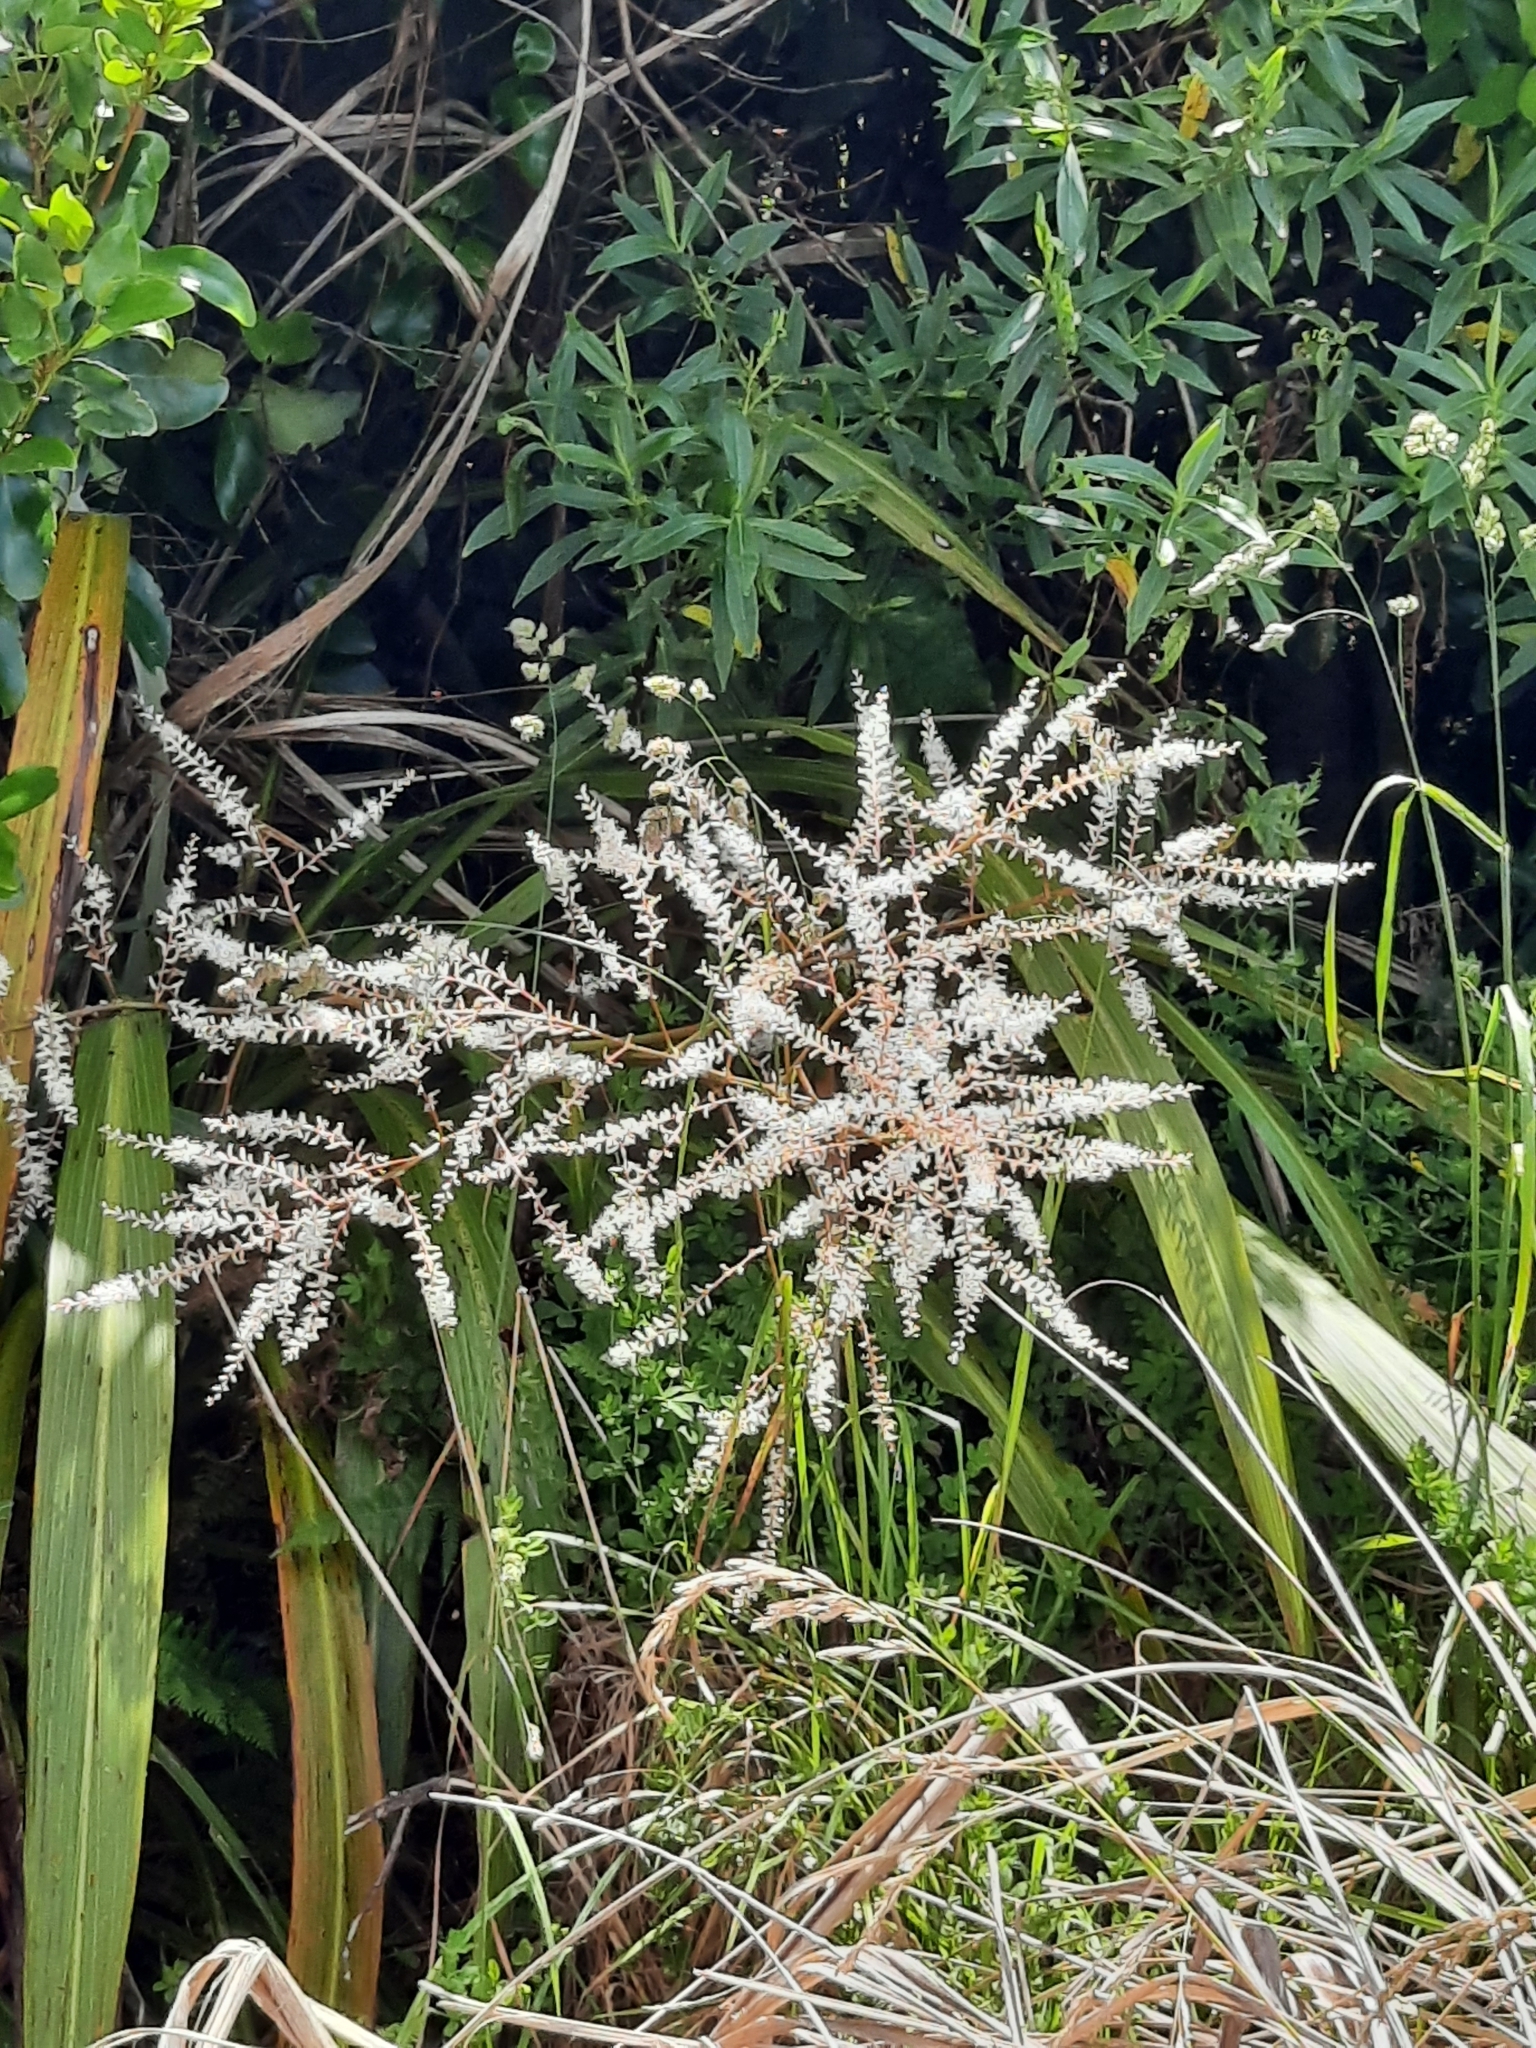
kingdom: Plantae
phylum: Tracheophyta
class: Liliopsida
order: Asparagales
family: Asparagaceae
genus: Cordyline
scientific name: Cordyline banksii
